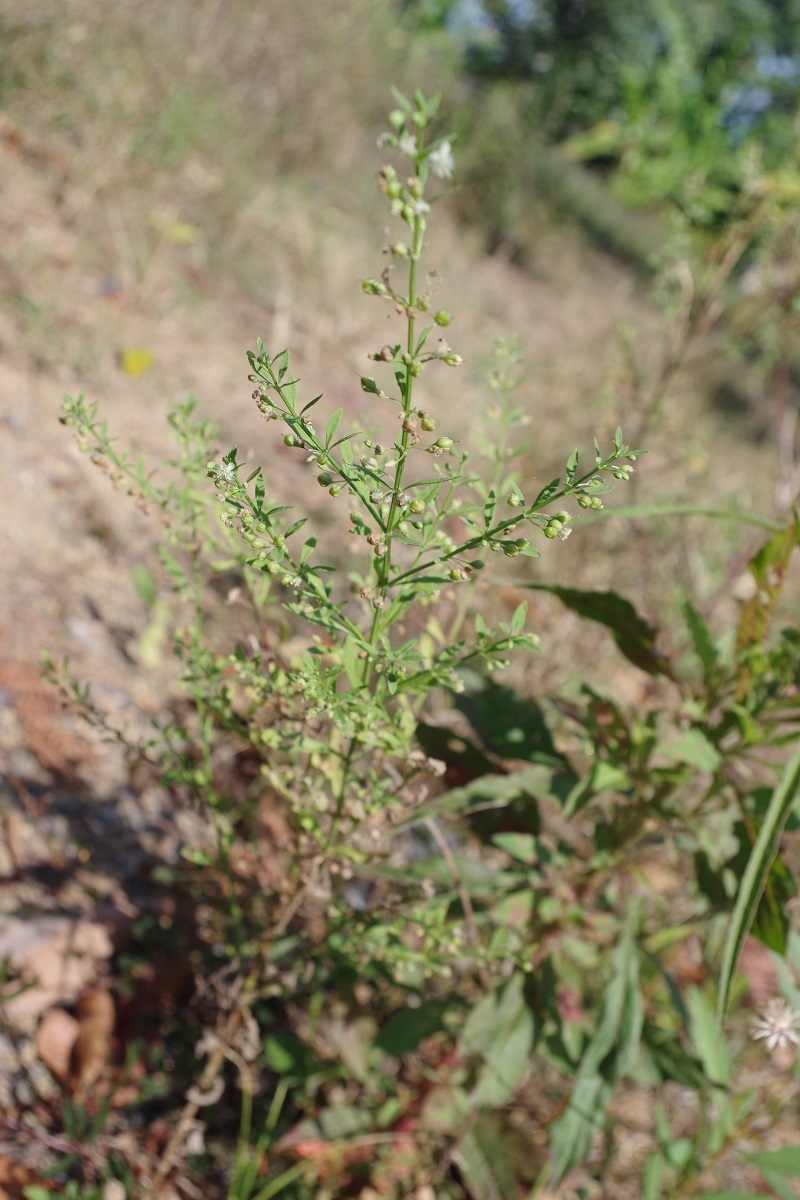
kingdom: Plantae
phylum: Tracheophyta
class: Magnoliopsida
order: Lamiales
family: Plantaginaceae
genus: Scoparia
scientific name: Scoparia dulcis
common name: Scoparia-weed
